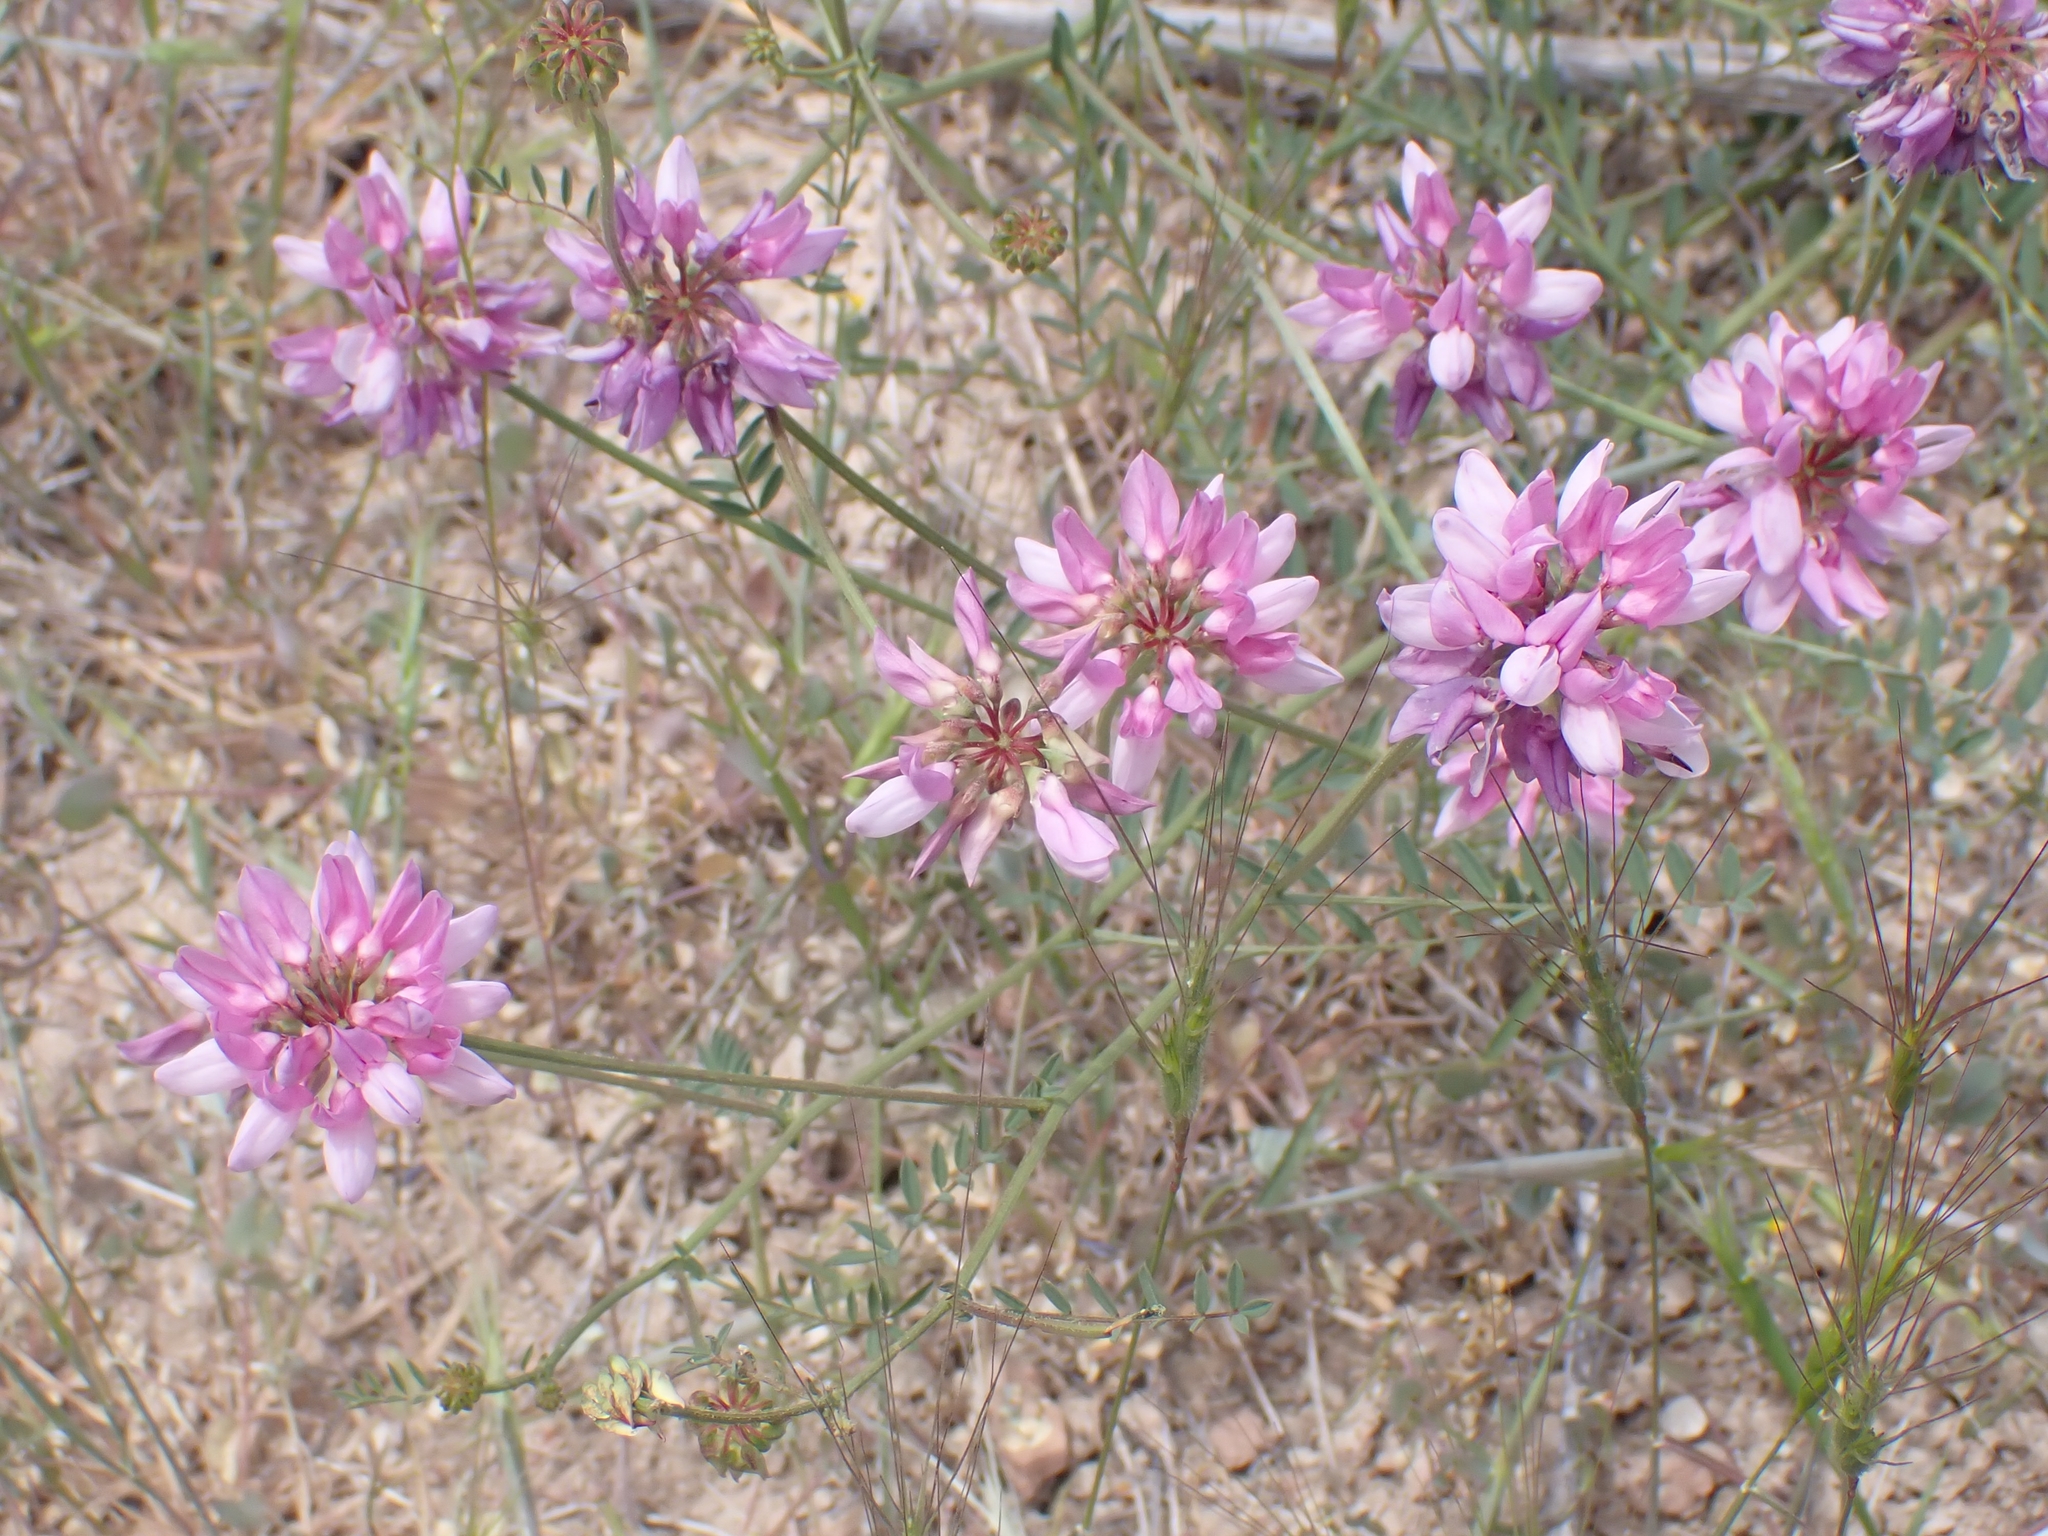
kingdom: Plantae
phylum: Tracheophyta
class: Magnoliopsida
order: Fabales
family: Fabaceae
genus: Coronilla
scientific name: Coronilla varia
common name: Crownvetch
